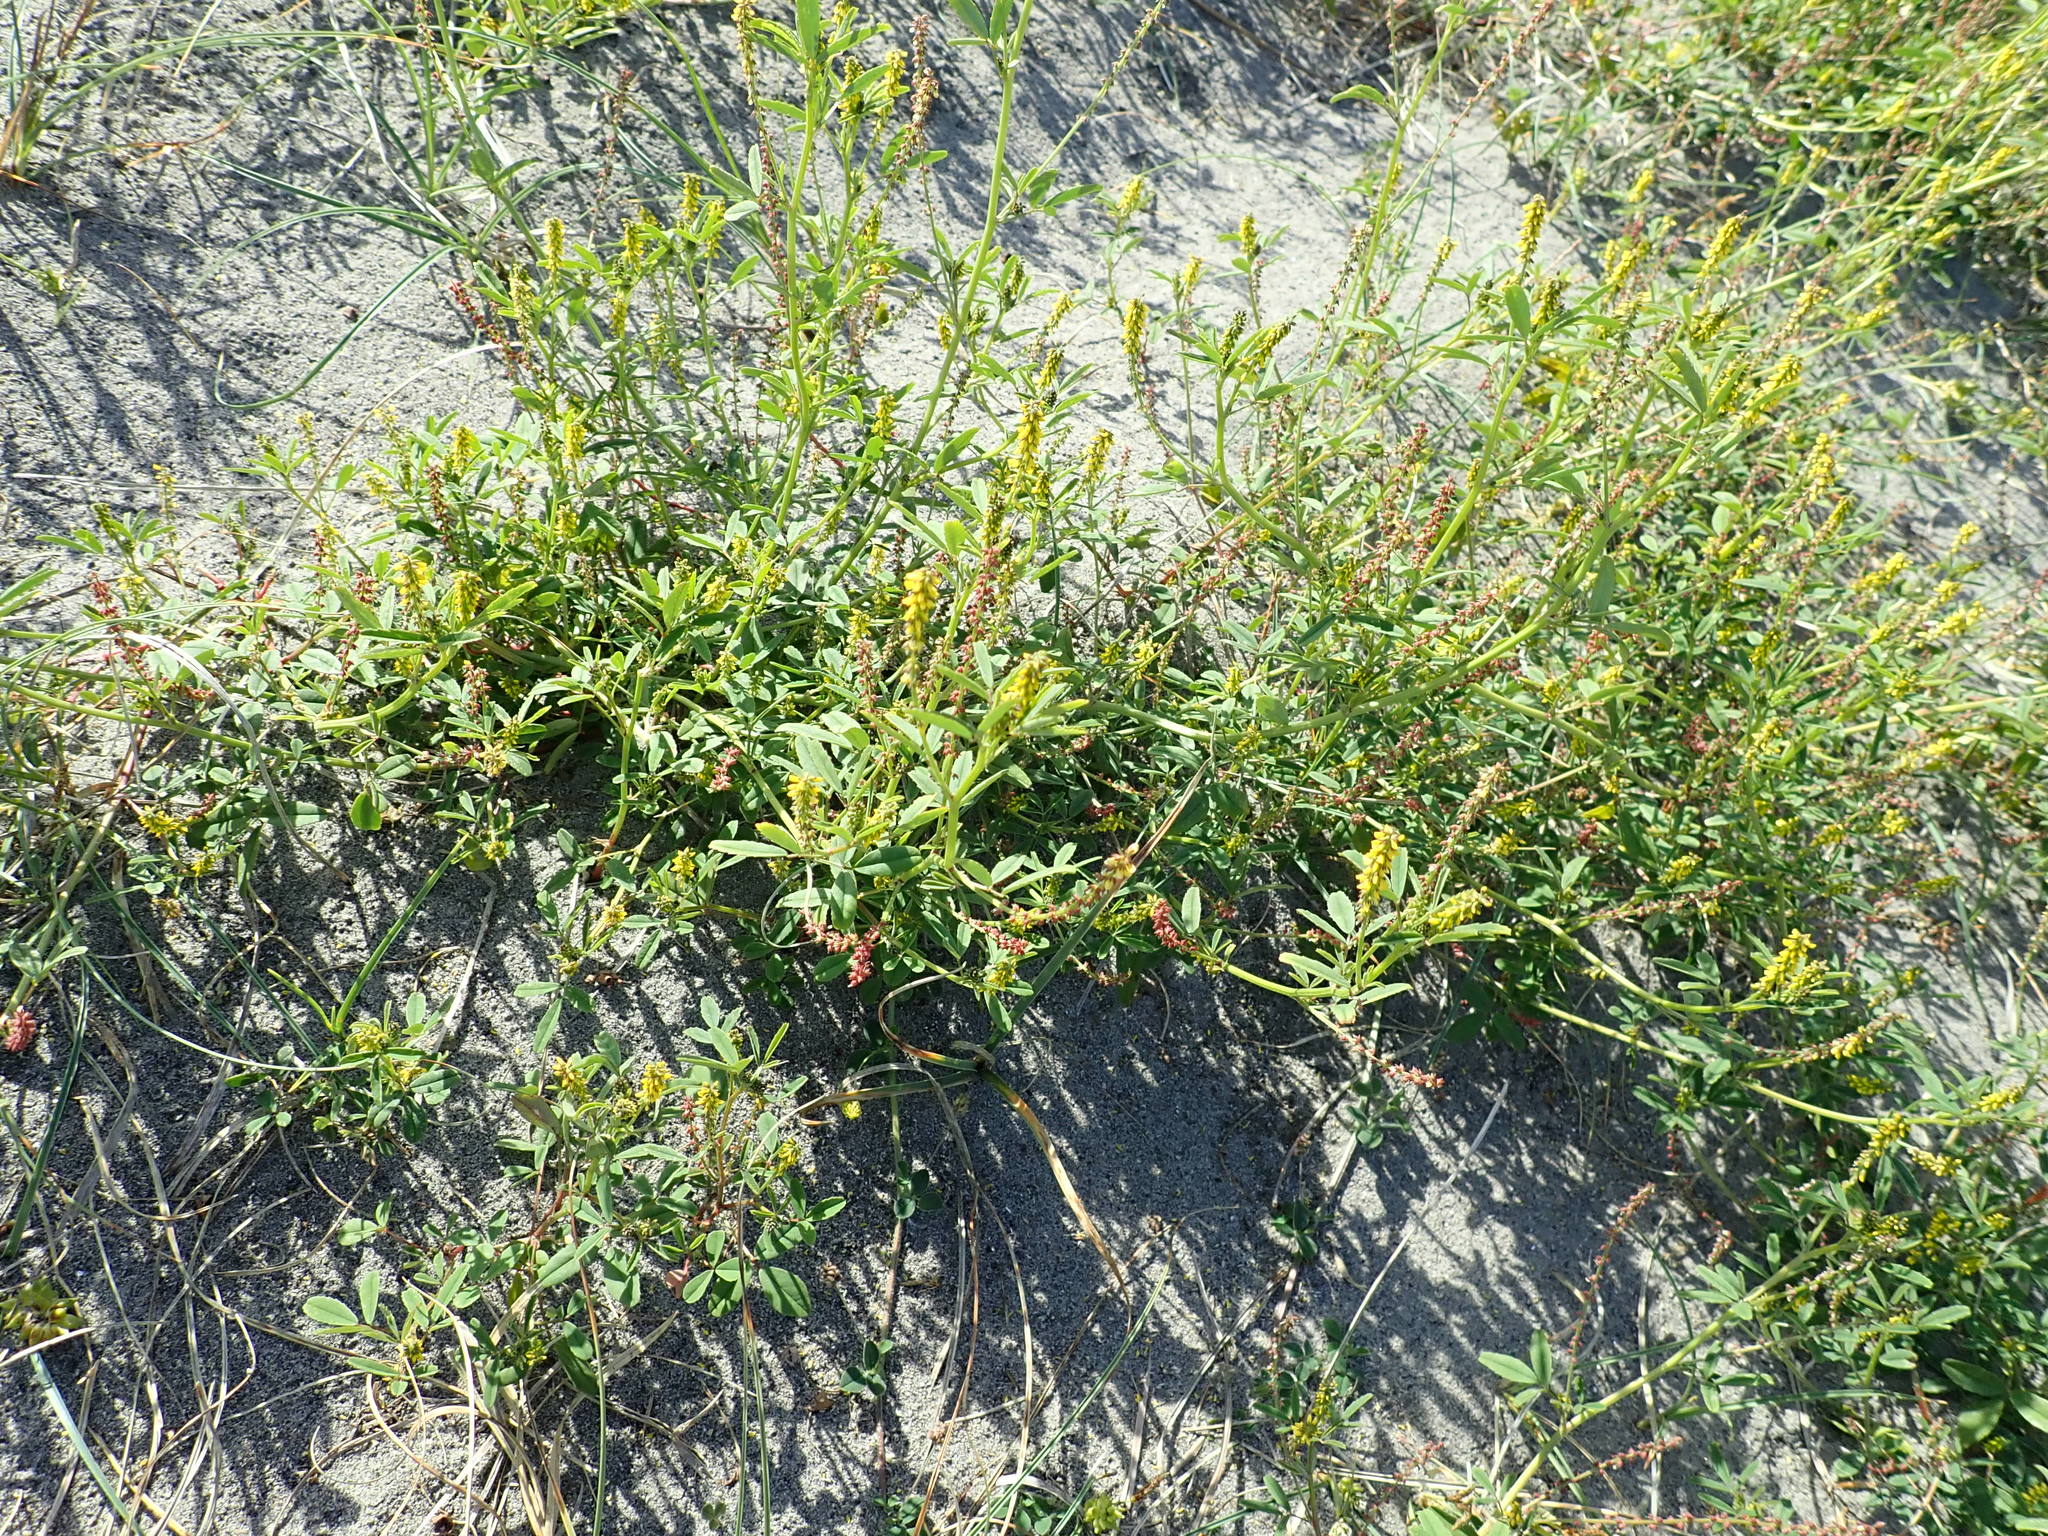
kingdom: Plantae
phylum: Tracheophyta
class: Magnoliopsida
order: Fabales
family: Fabaceae
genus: Melilotus
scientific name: Melilotus indicus
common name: Small melilot
